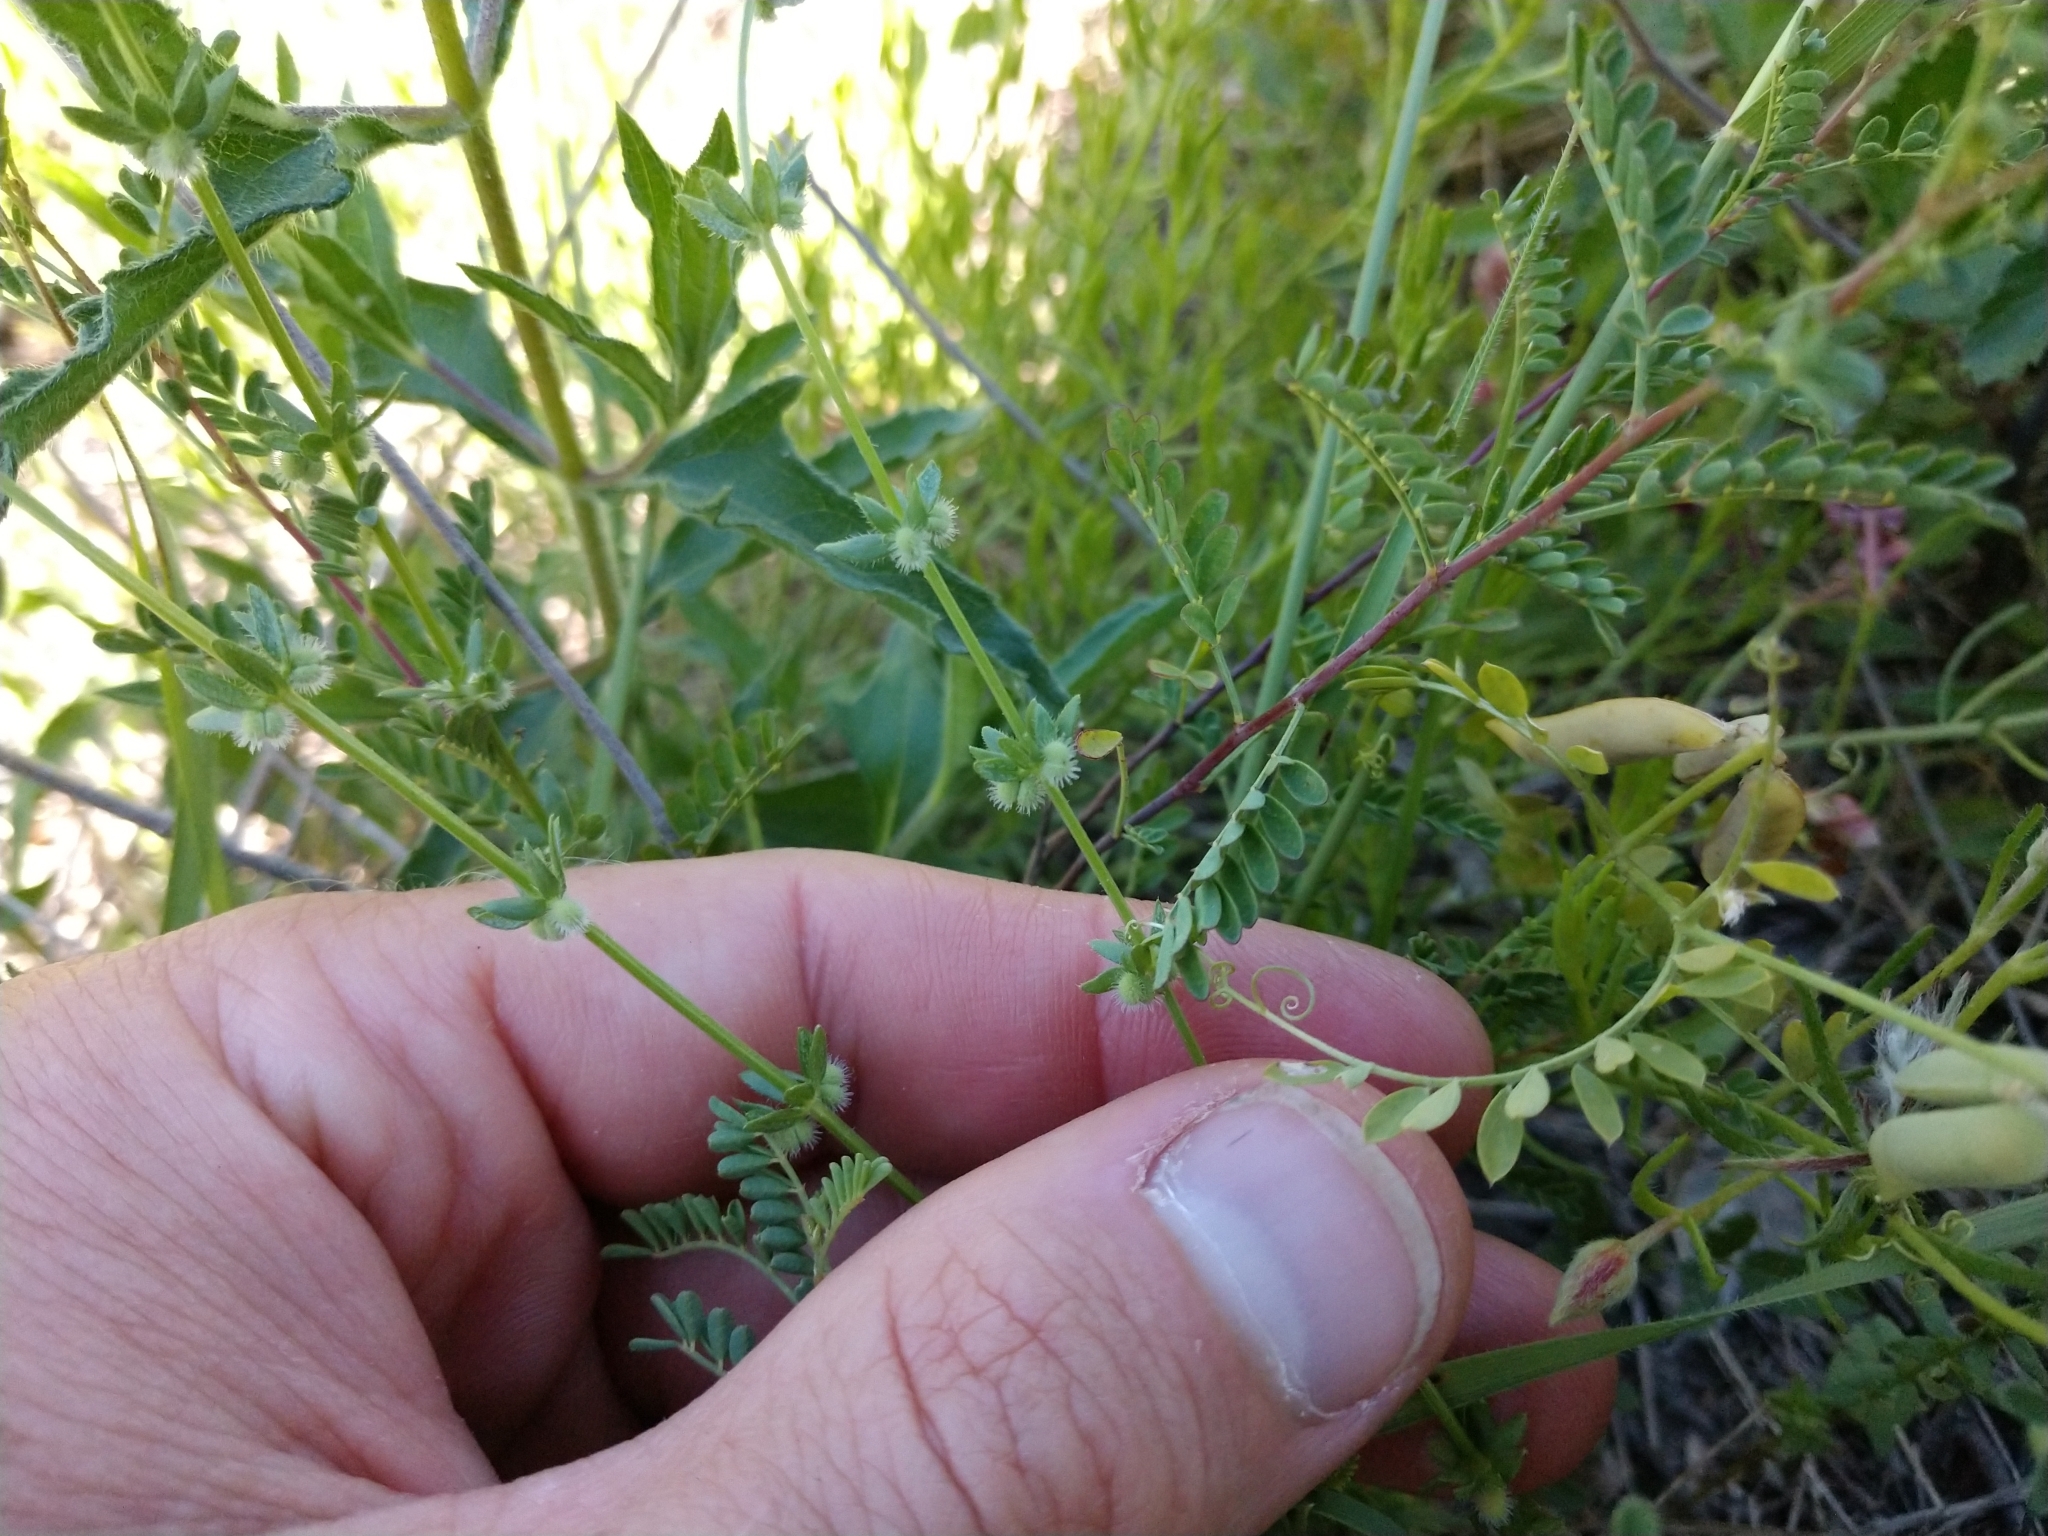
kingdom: Plantae
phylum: Tracheophyta
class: Magnoliopsida
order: Gentianales
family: Rubiaceae
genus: Galium
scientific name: Galium virgatum
